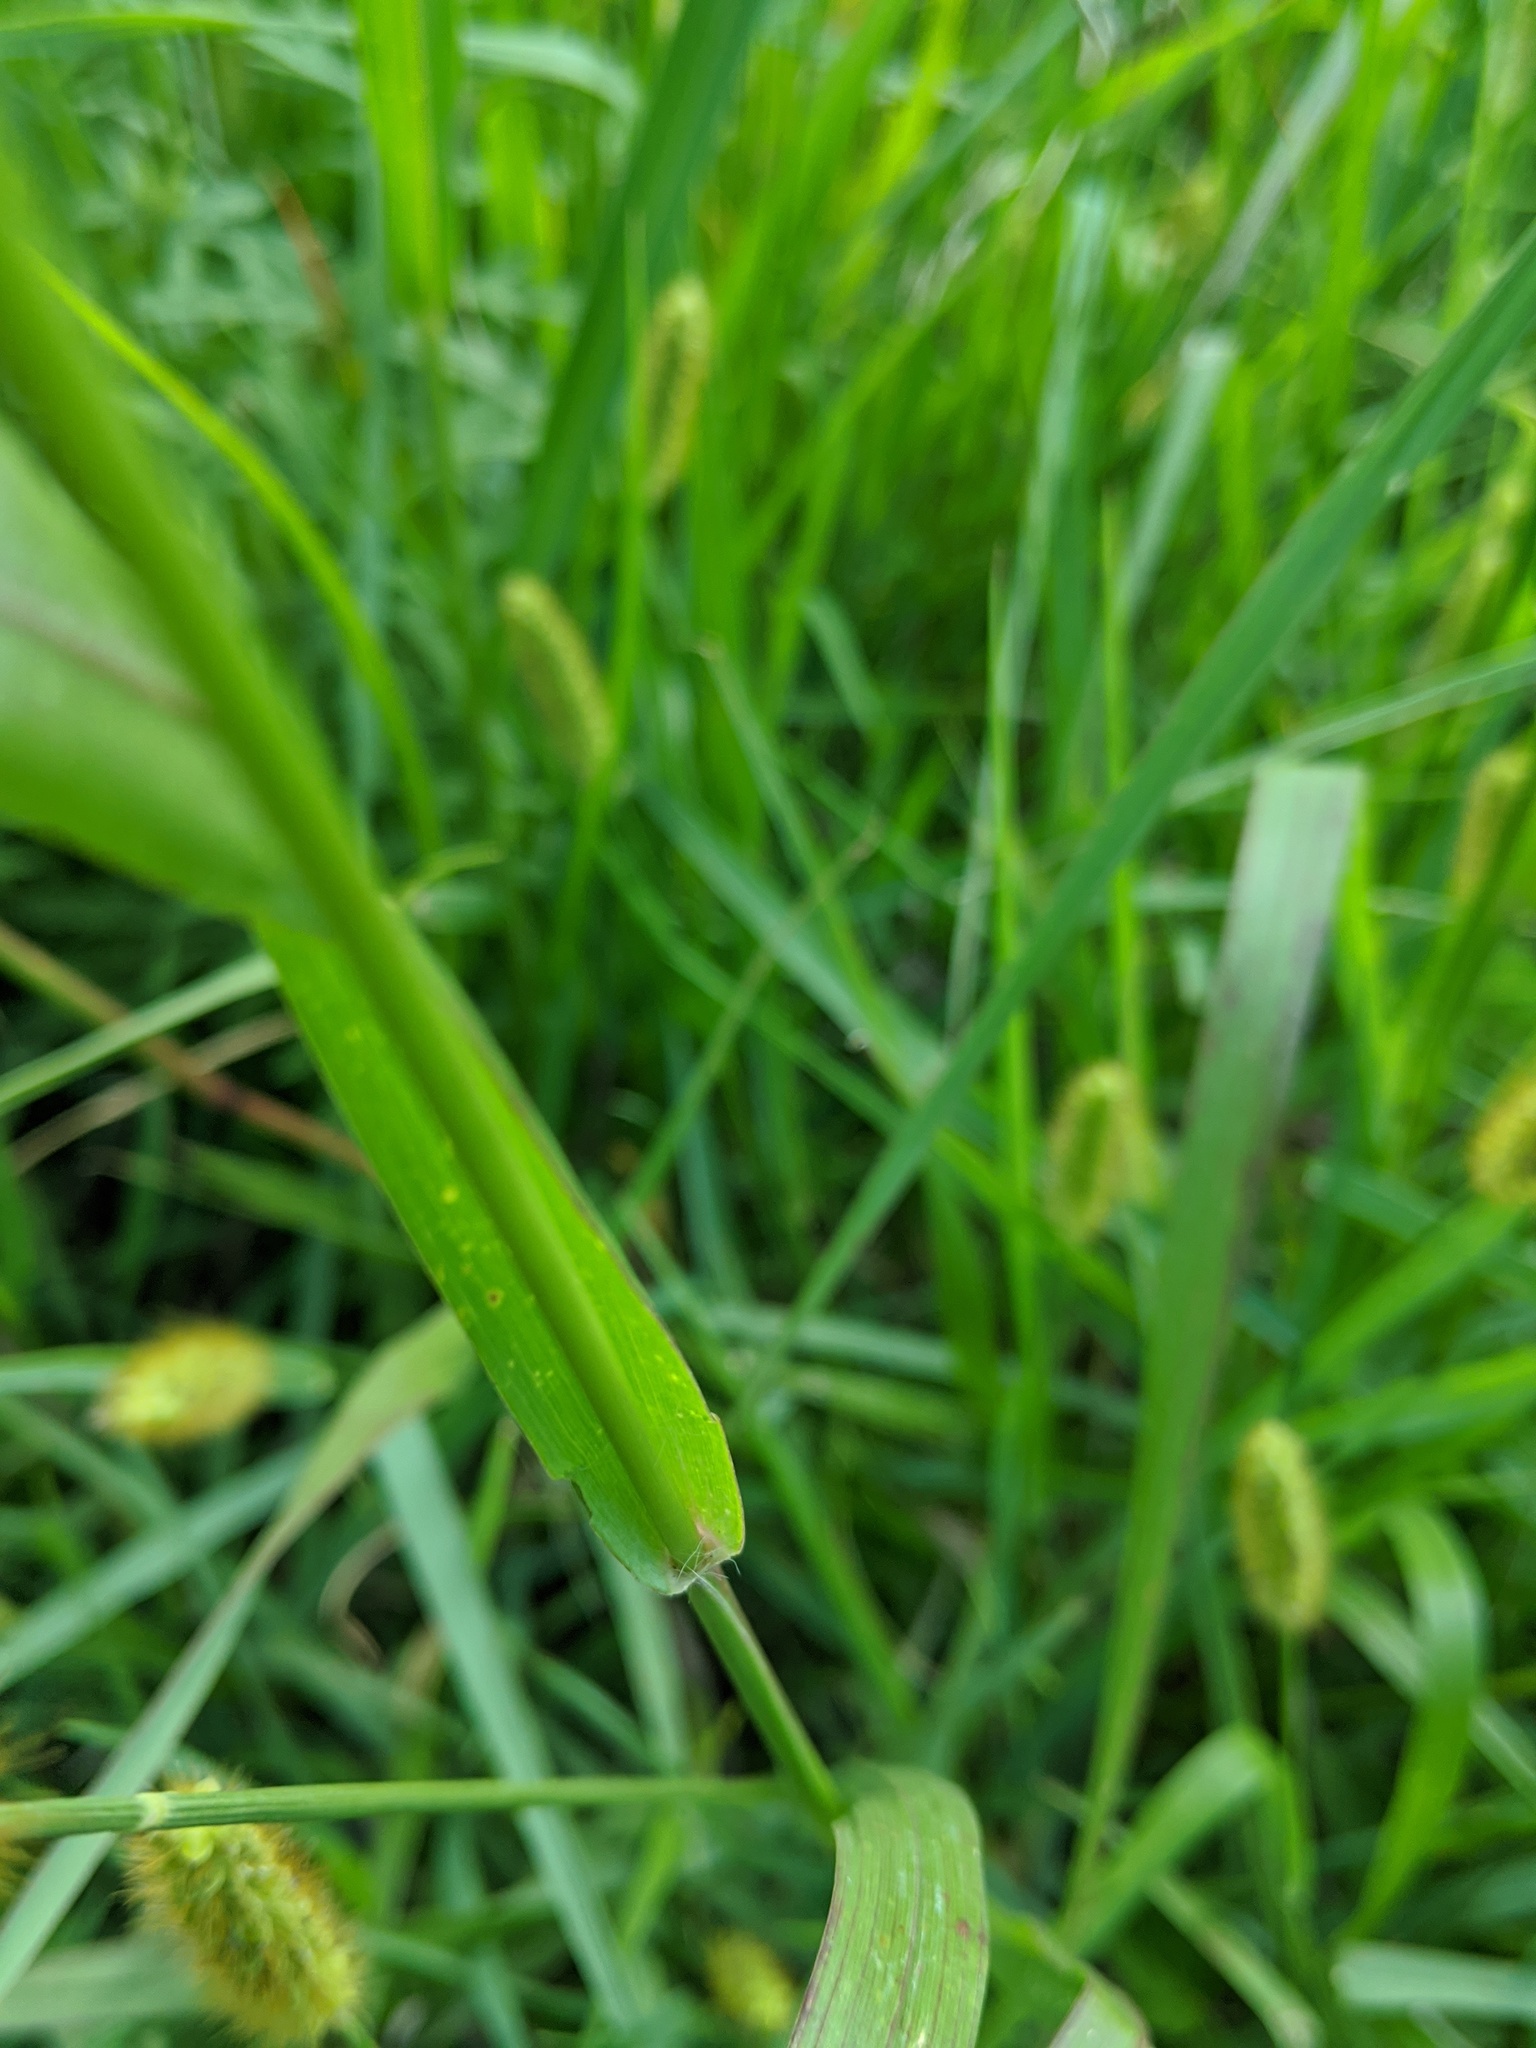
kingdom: Plantae
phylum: Tracheophyta
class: Liliopsida
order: Poales
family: Poaceae
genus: Setaria
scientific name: Setaria pumila
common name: Yellow bristle-grass
